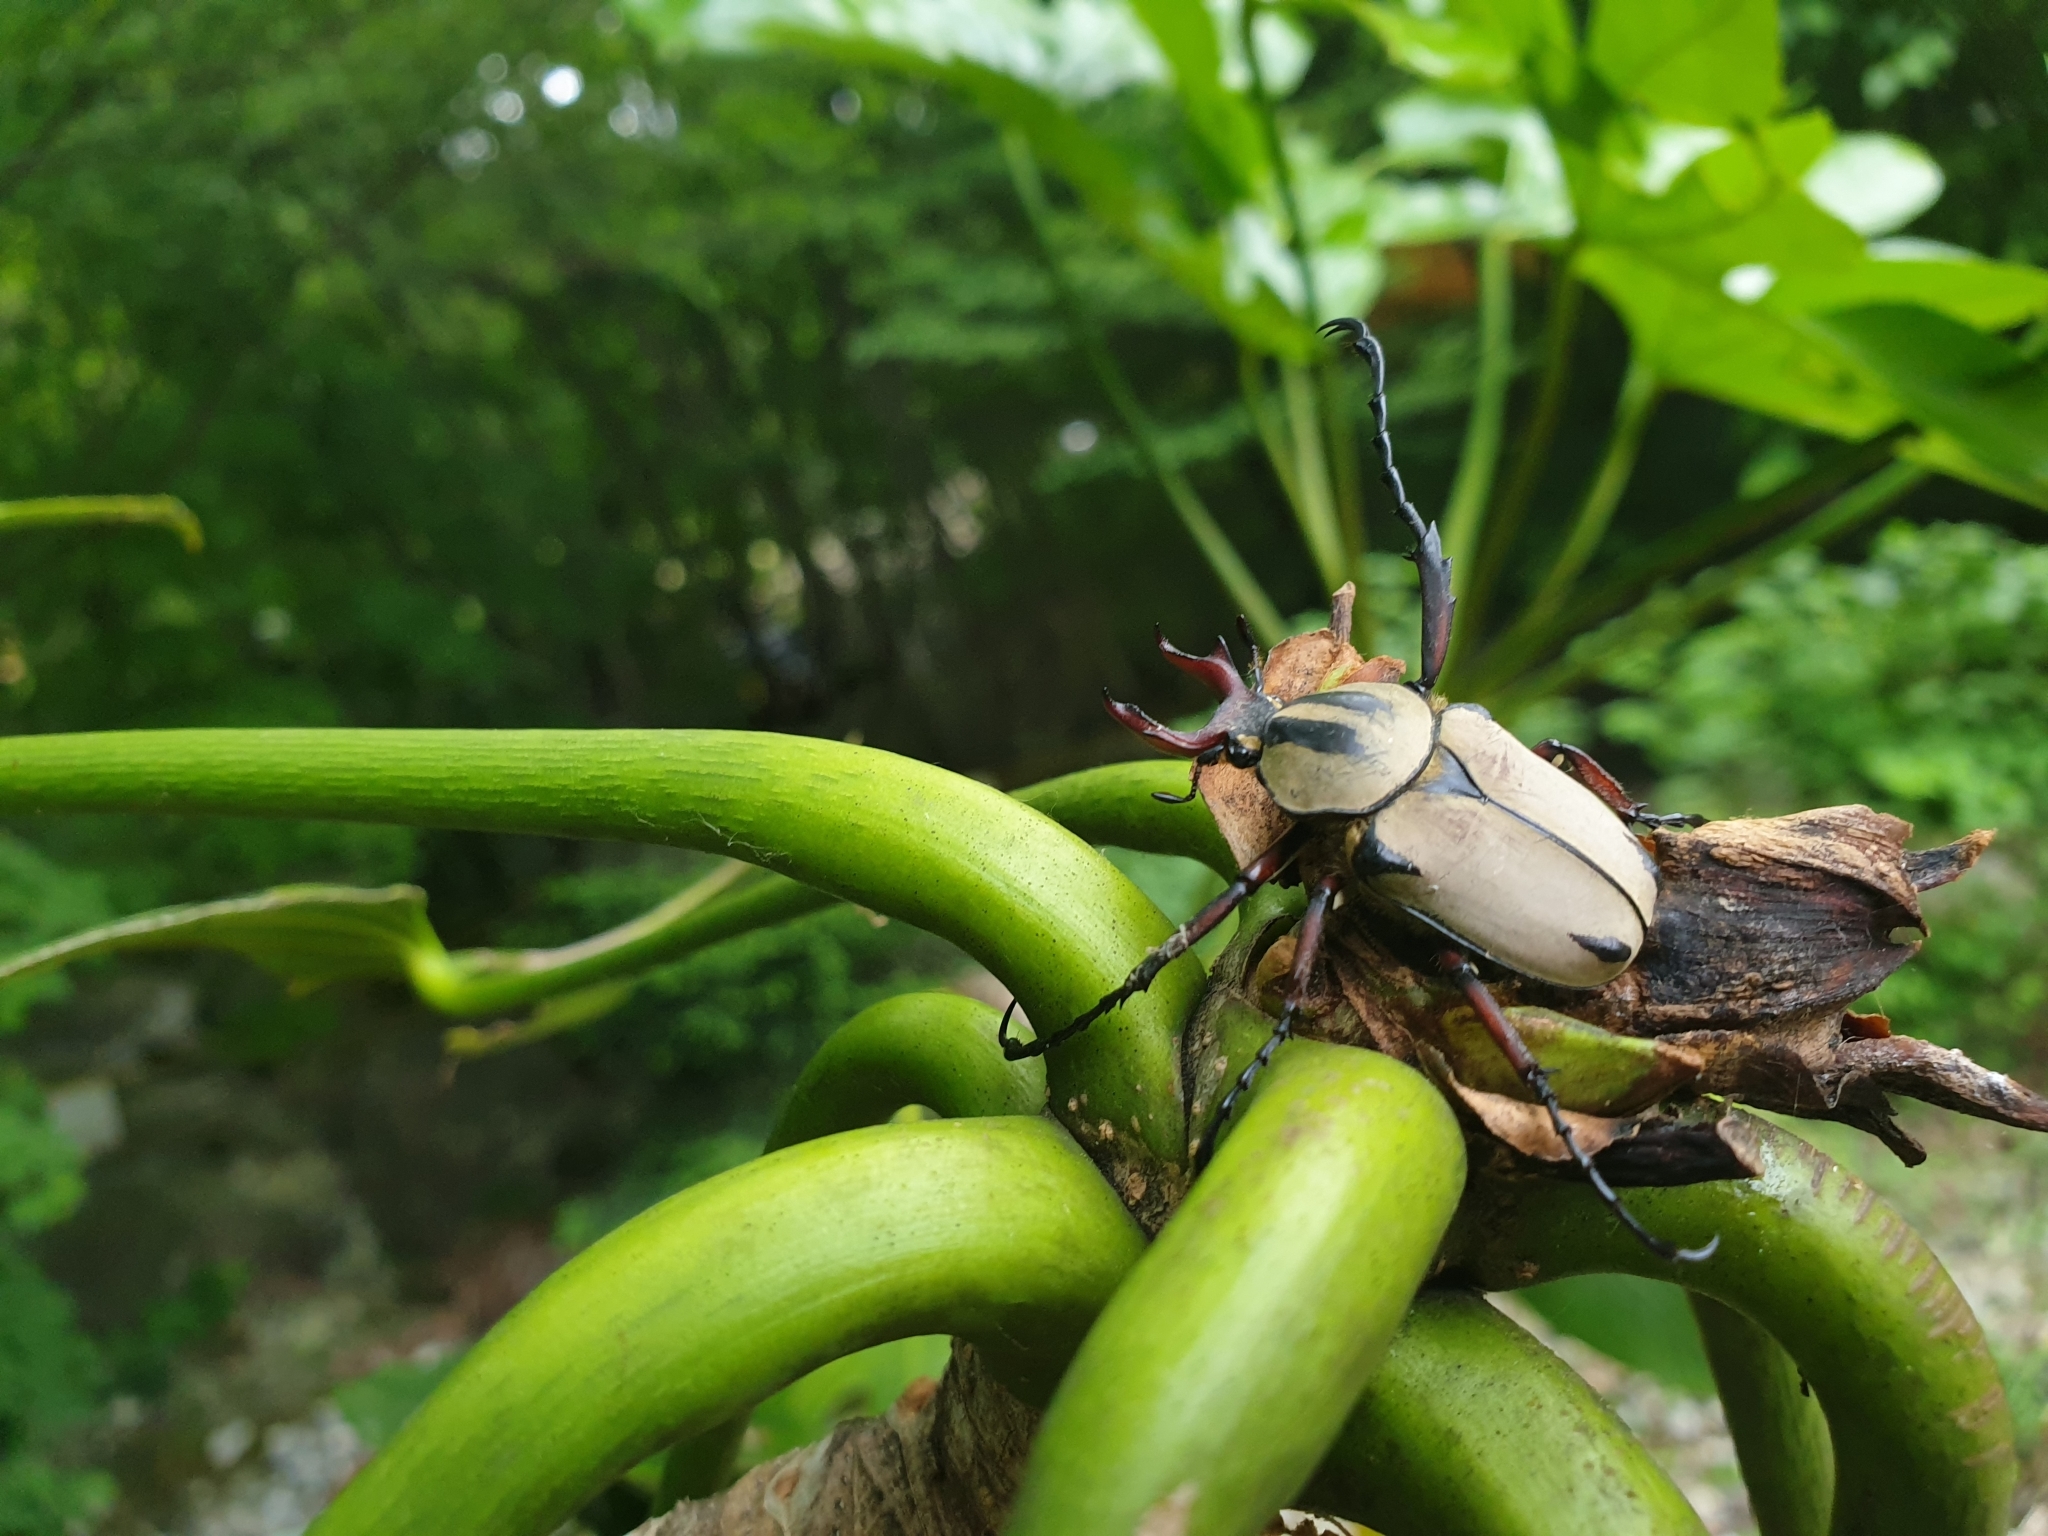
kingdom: Animalia
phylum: Arthropoda
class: Insecta
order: Coleoptera
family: Scarabaeidae
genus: Dicronocephalus
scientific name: Dicronocephalus adamsi
